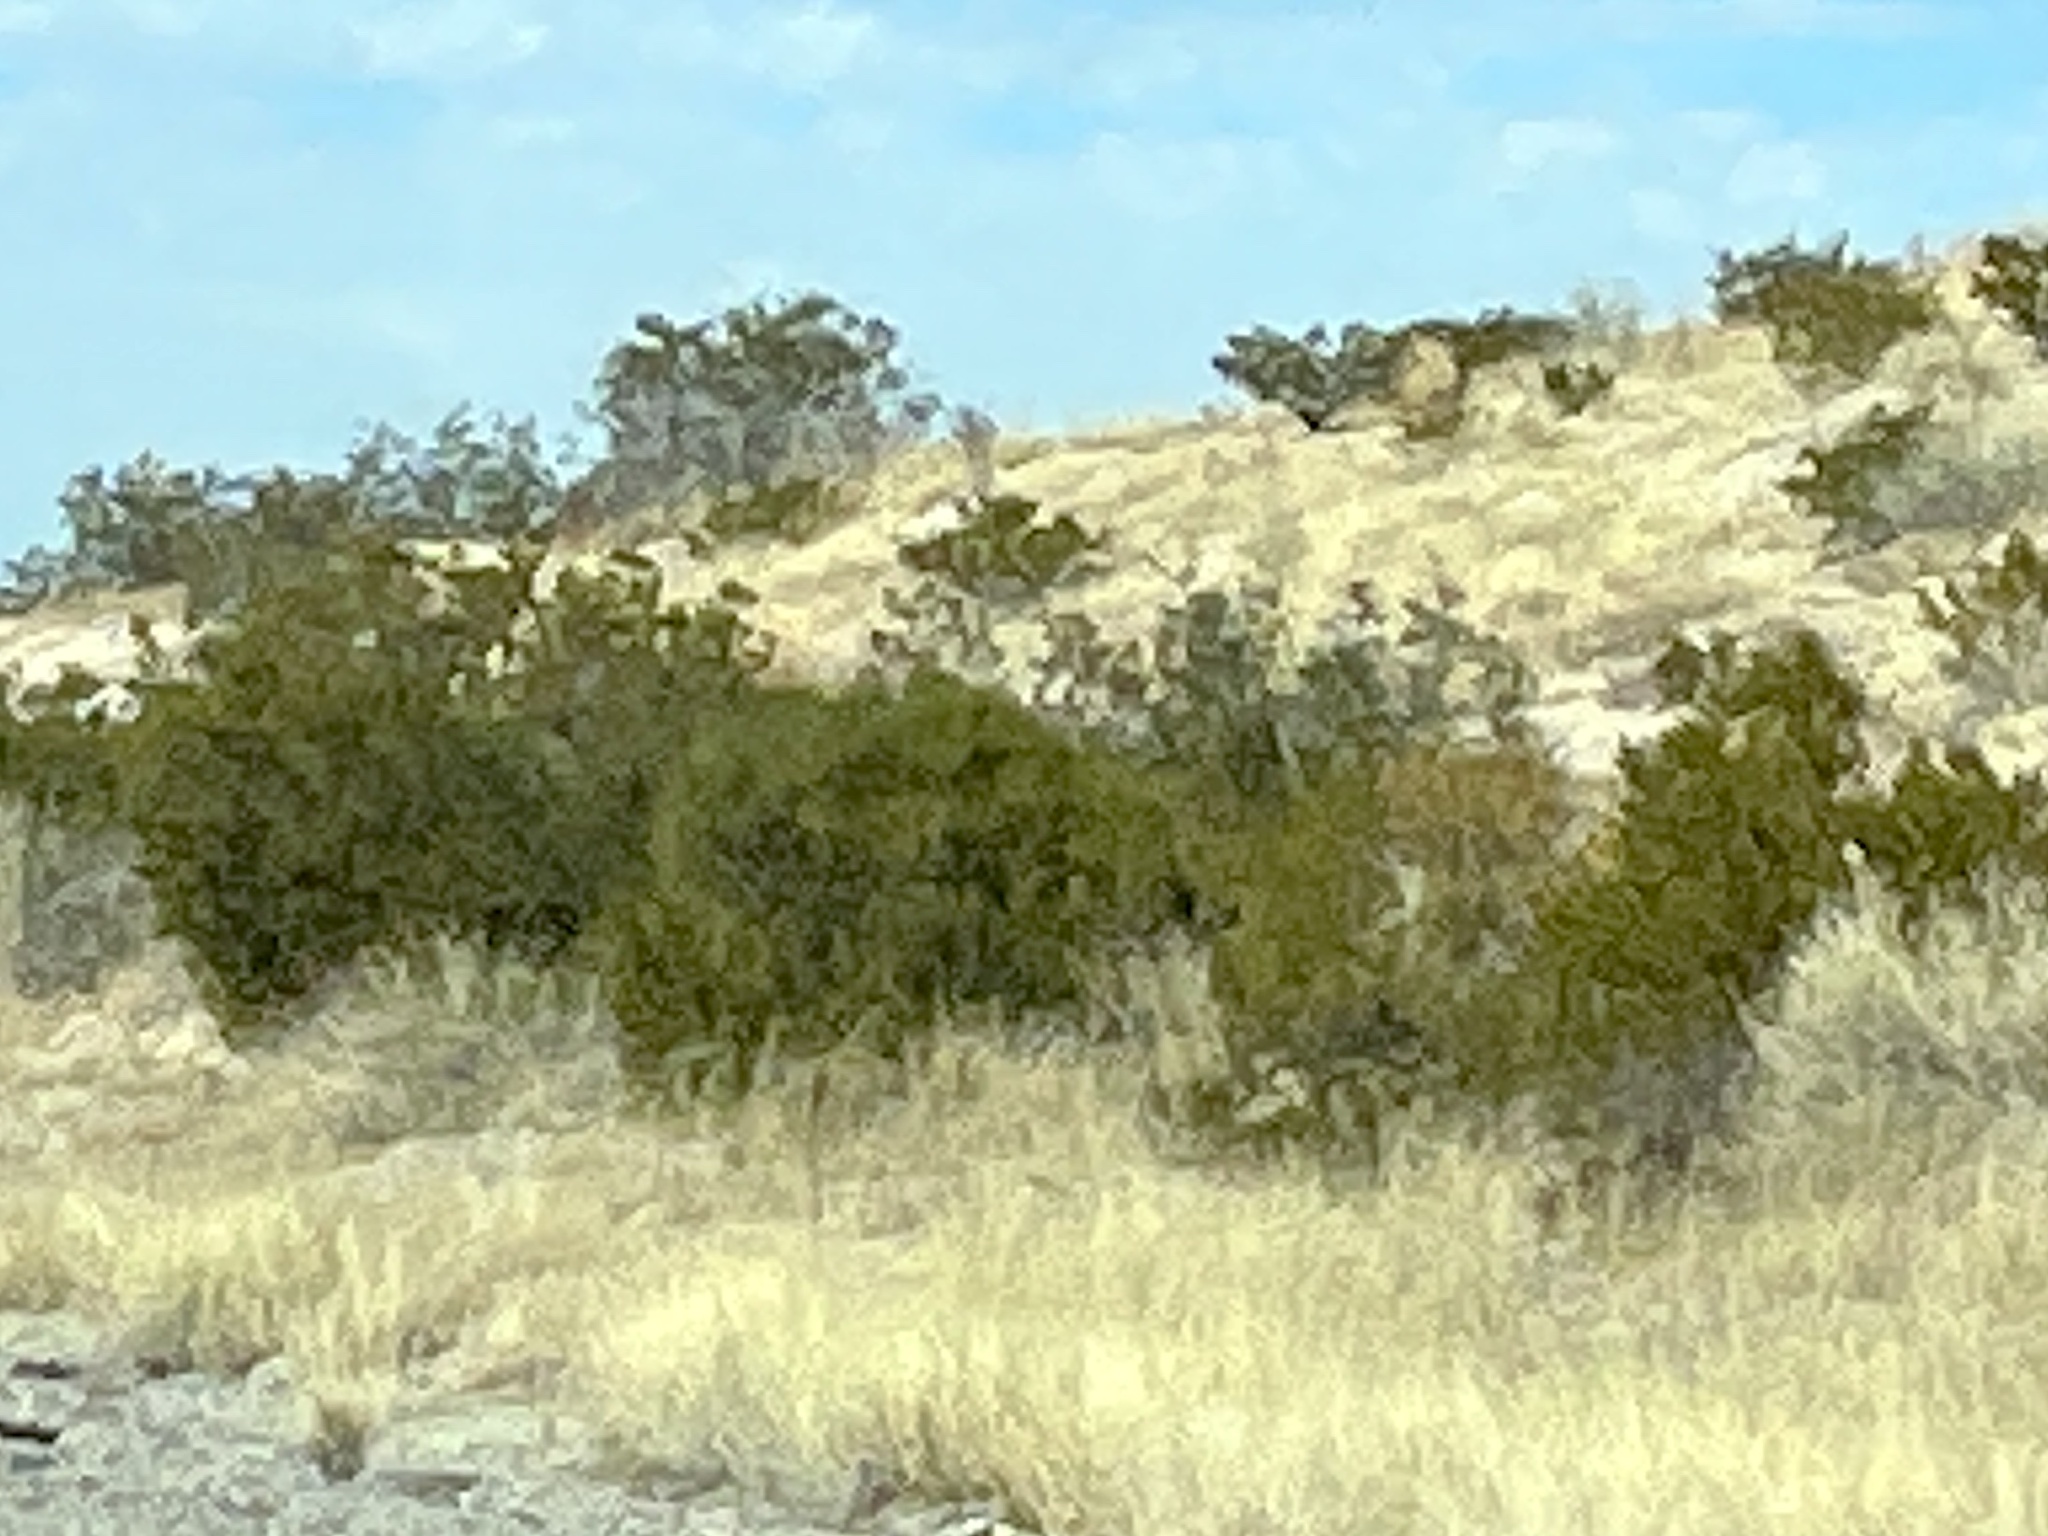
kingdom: Plantae
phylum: Tracheophyta
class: Magnoliopsida
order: Zygophyllales
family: Zygophyllaceae
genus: Larrea
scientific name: Larrea tridentata
